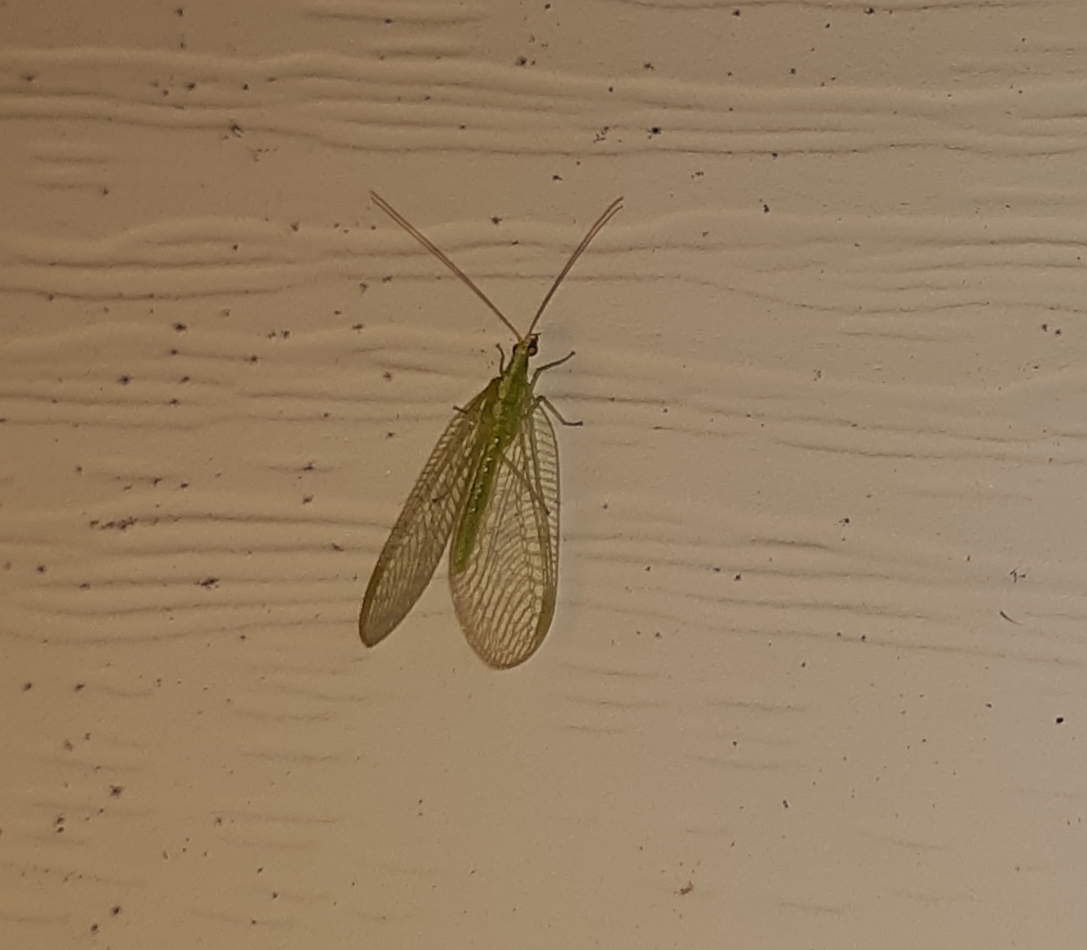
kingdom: Animalia
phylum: Arthropoda
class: Insecta
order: Neuroptera
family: Chrysopidae
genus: Chrysoperla
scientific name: Chrysoperla
